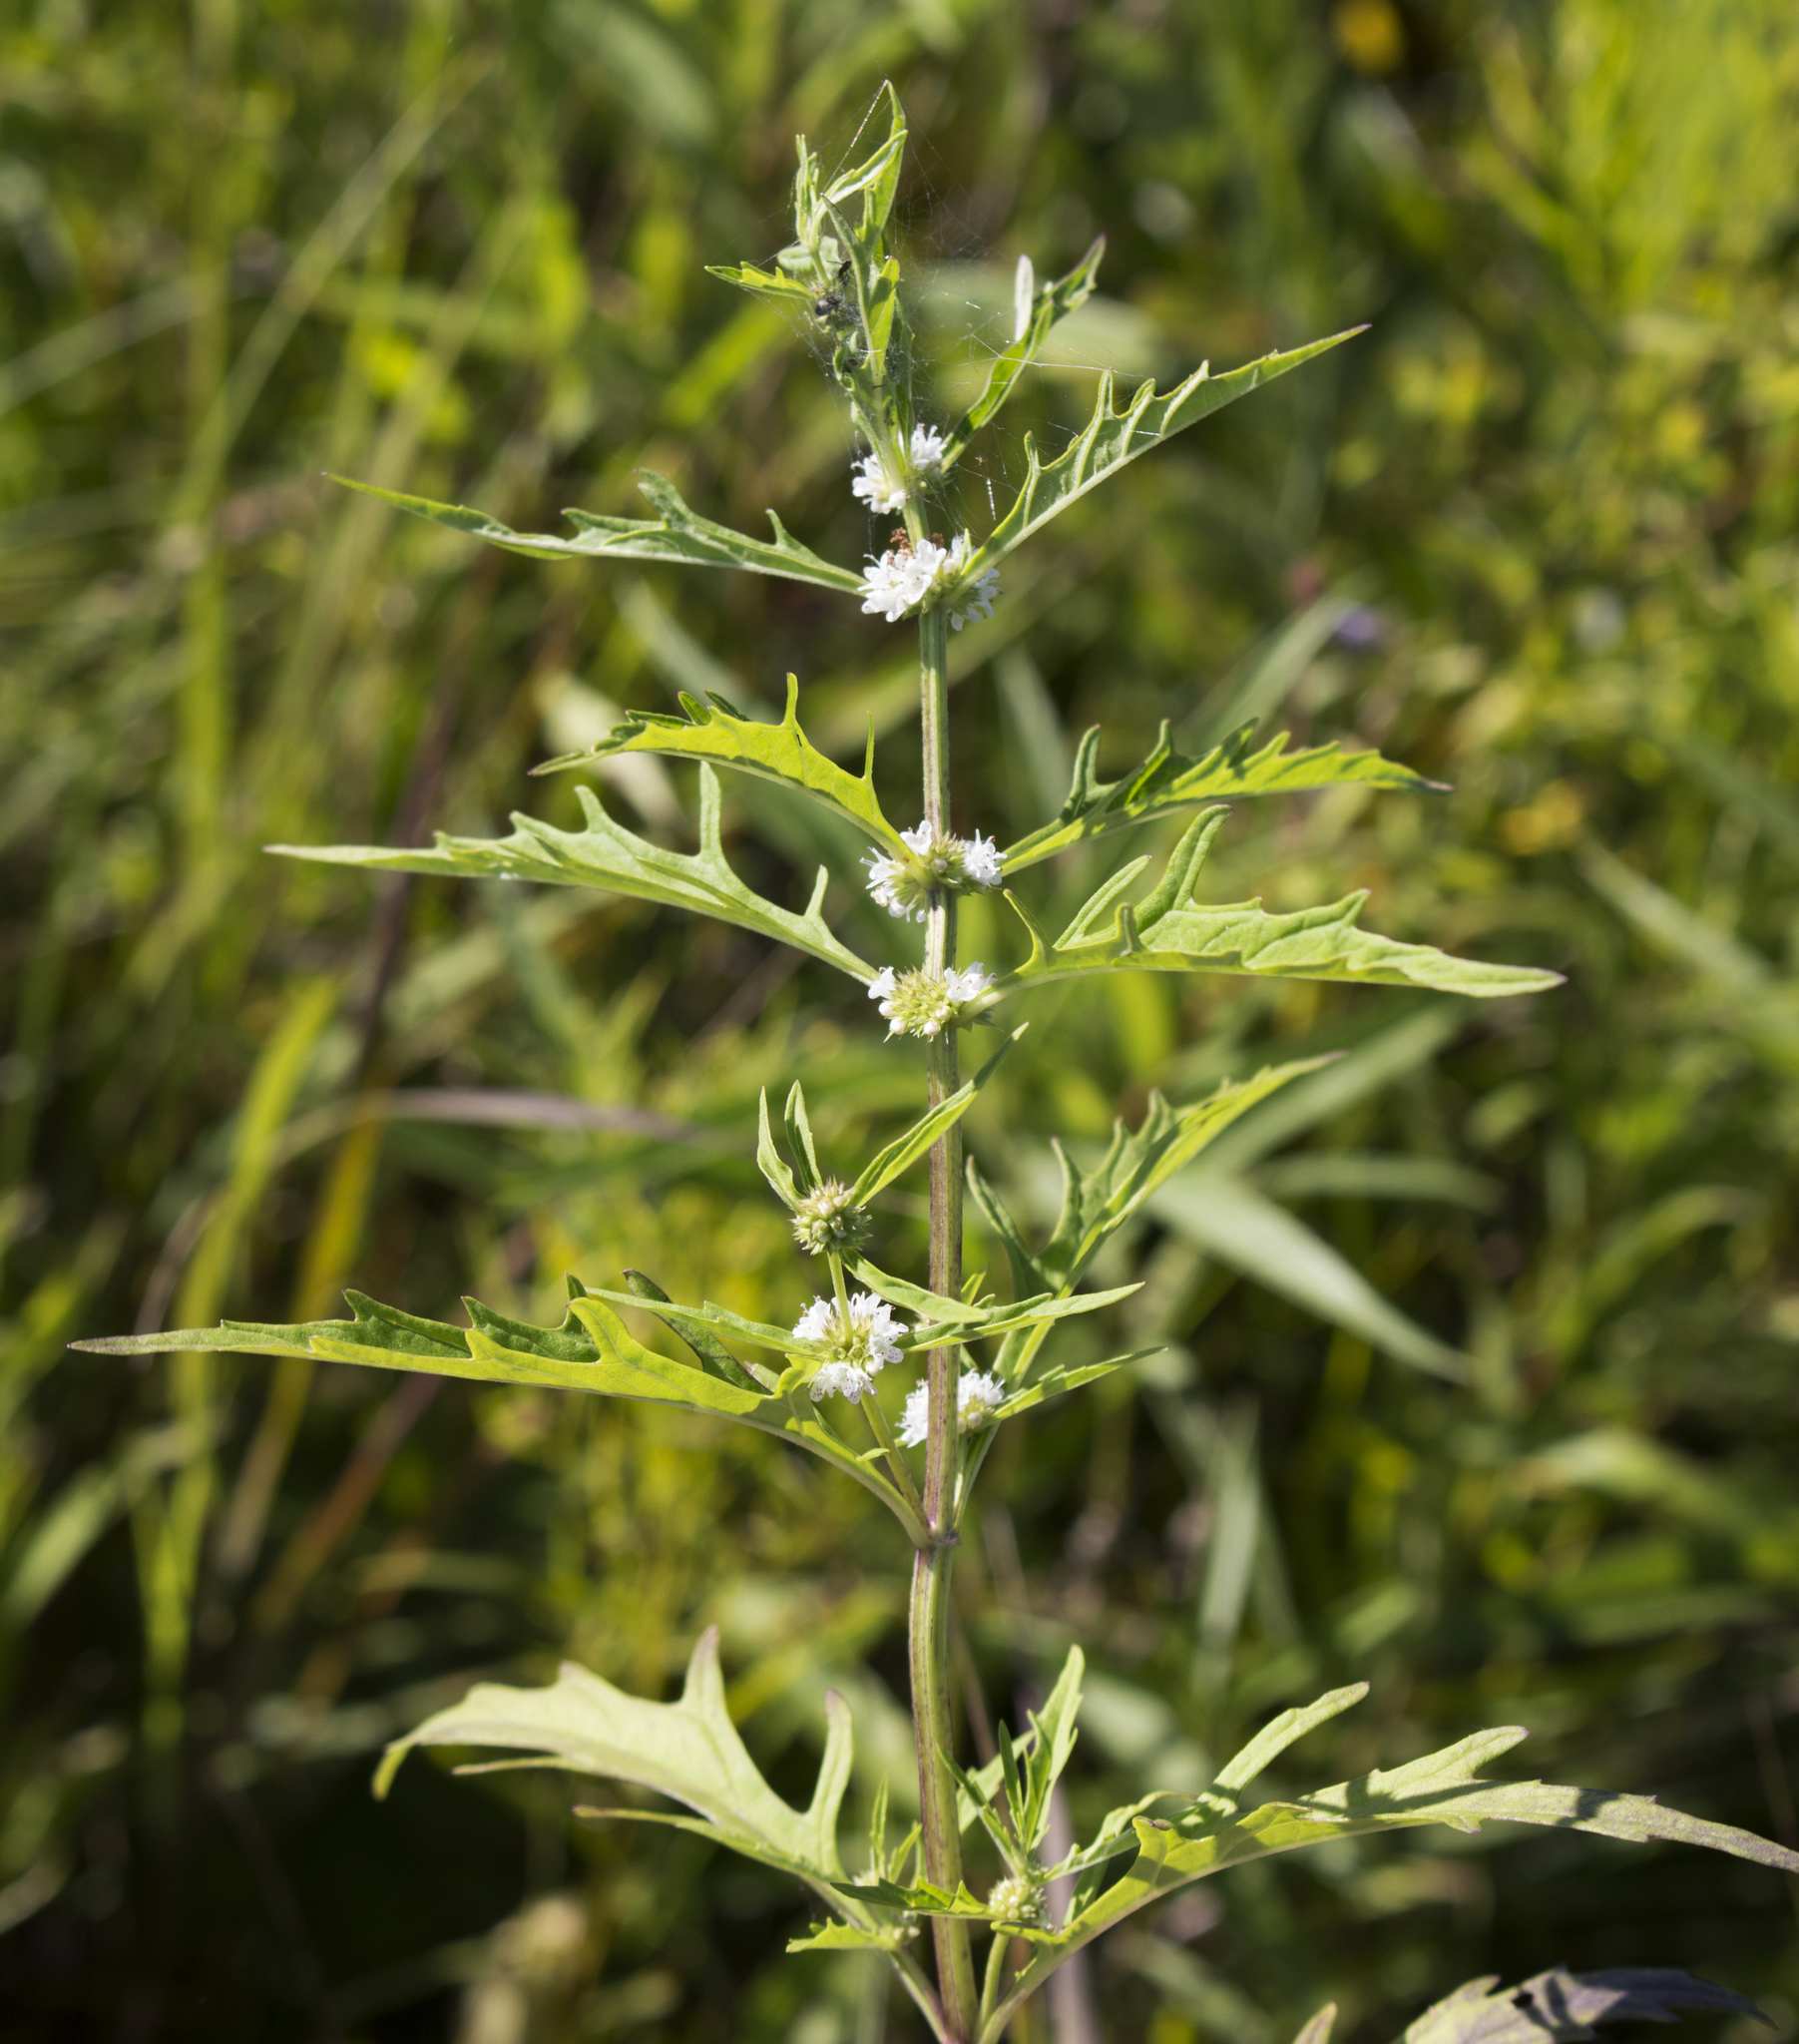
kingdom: Plantae
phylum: Tracheophyta
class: Magnoliopsida
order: Lamiales
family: Lamiaceae
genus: Lycopus
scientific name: Lycopus americanus
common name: American bugleweed
